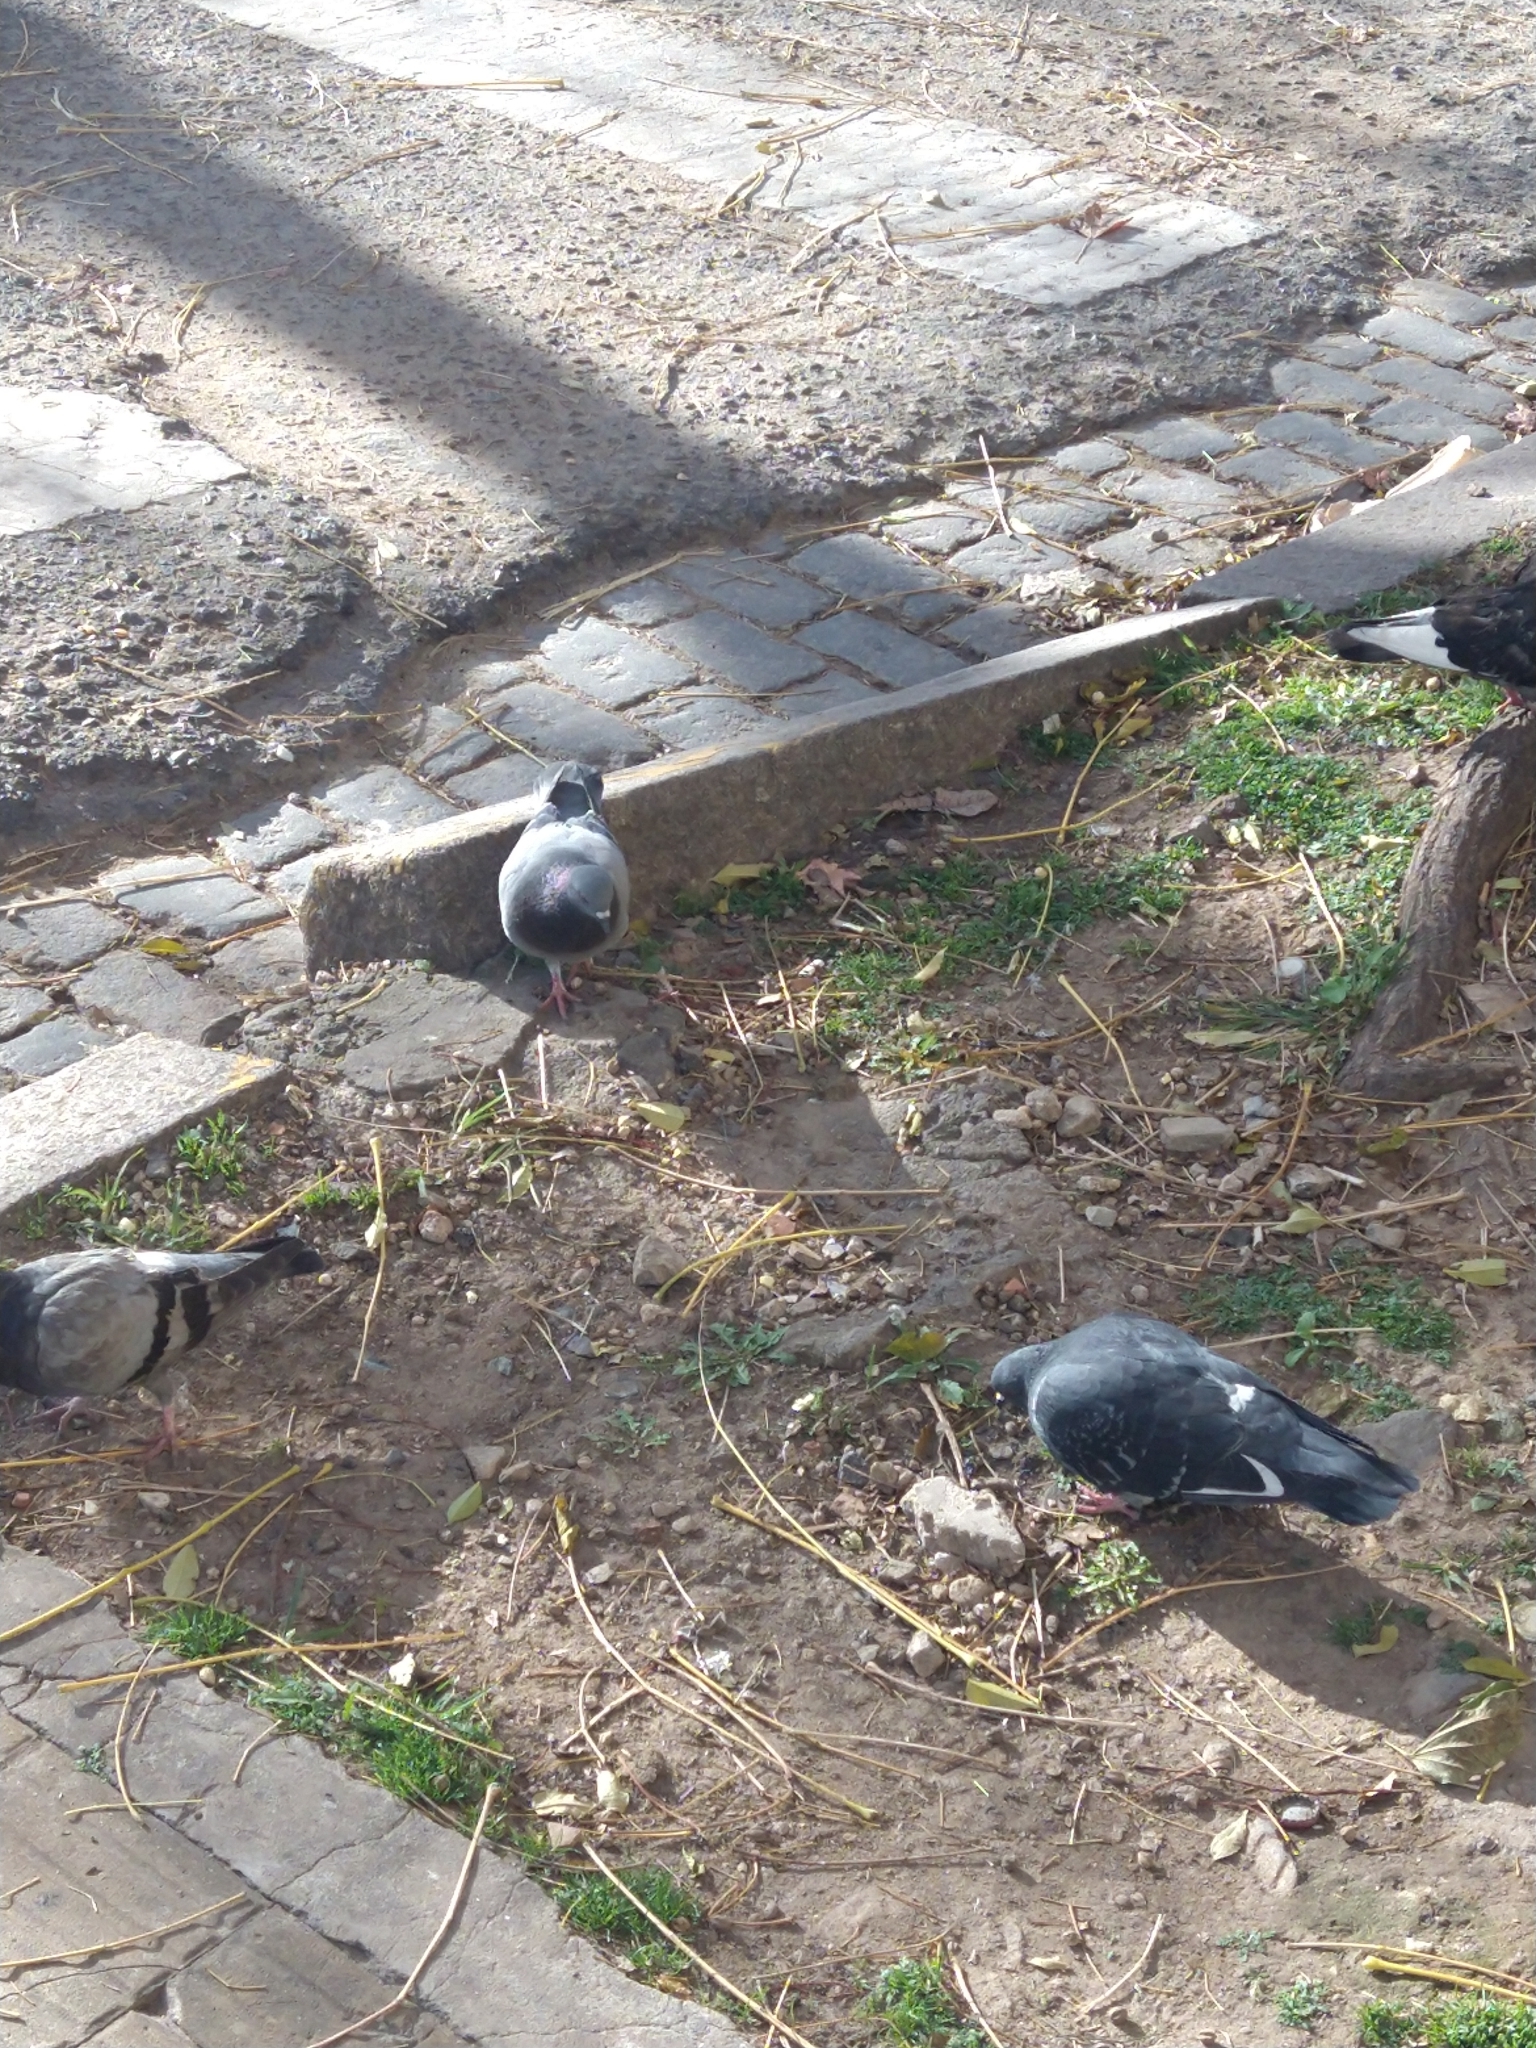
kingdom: Animalia
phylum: Chordata
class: Aves
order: Columbiformes
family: Columbidae
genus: Columba
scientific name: Columba livia
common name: Rock pigeon
